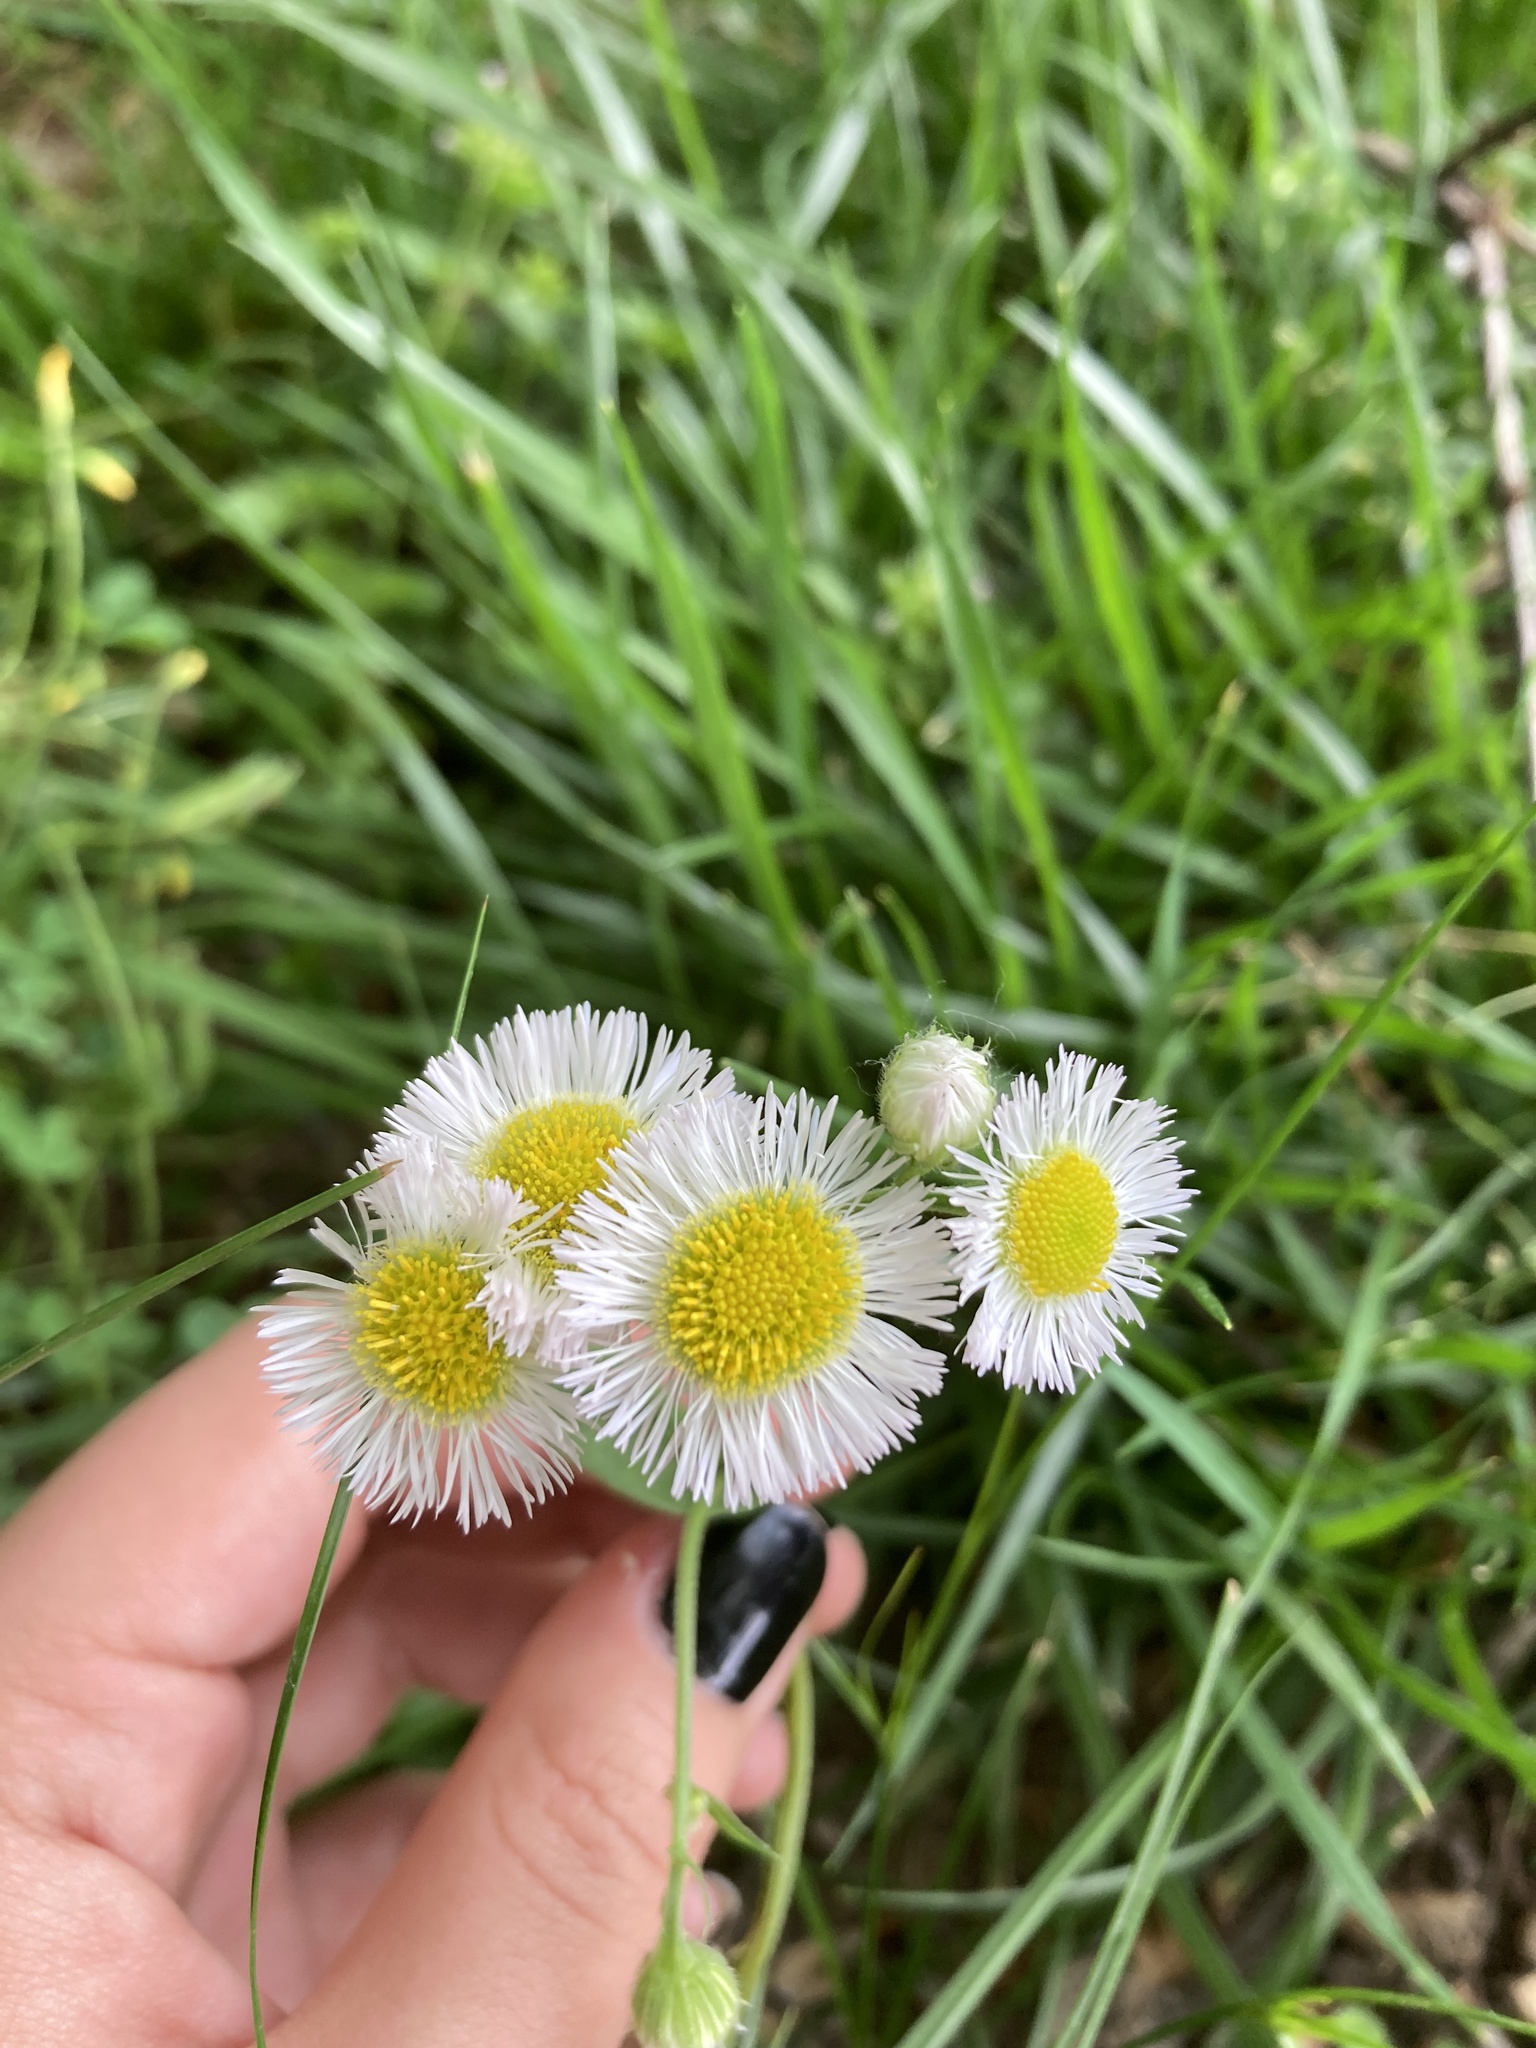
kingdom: Plantae
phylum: Tracheophyta
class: Magnoliopsida
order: Asterales
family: Asteraceae
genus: Erigeron
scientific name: Erigeron philadelphicus
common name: Robin's-plantain
